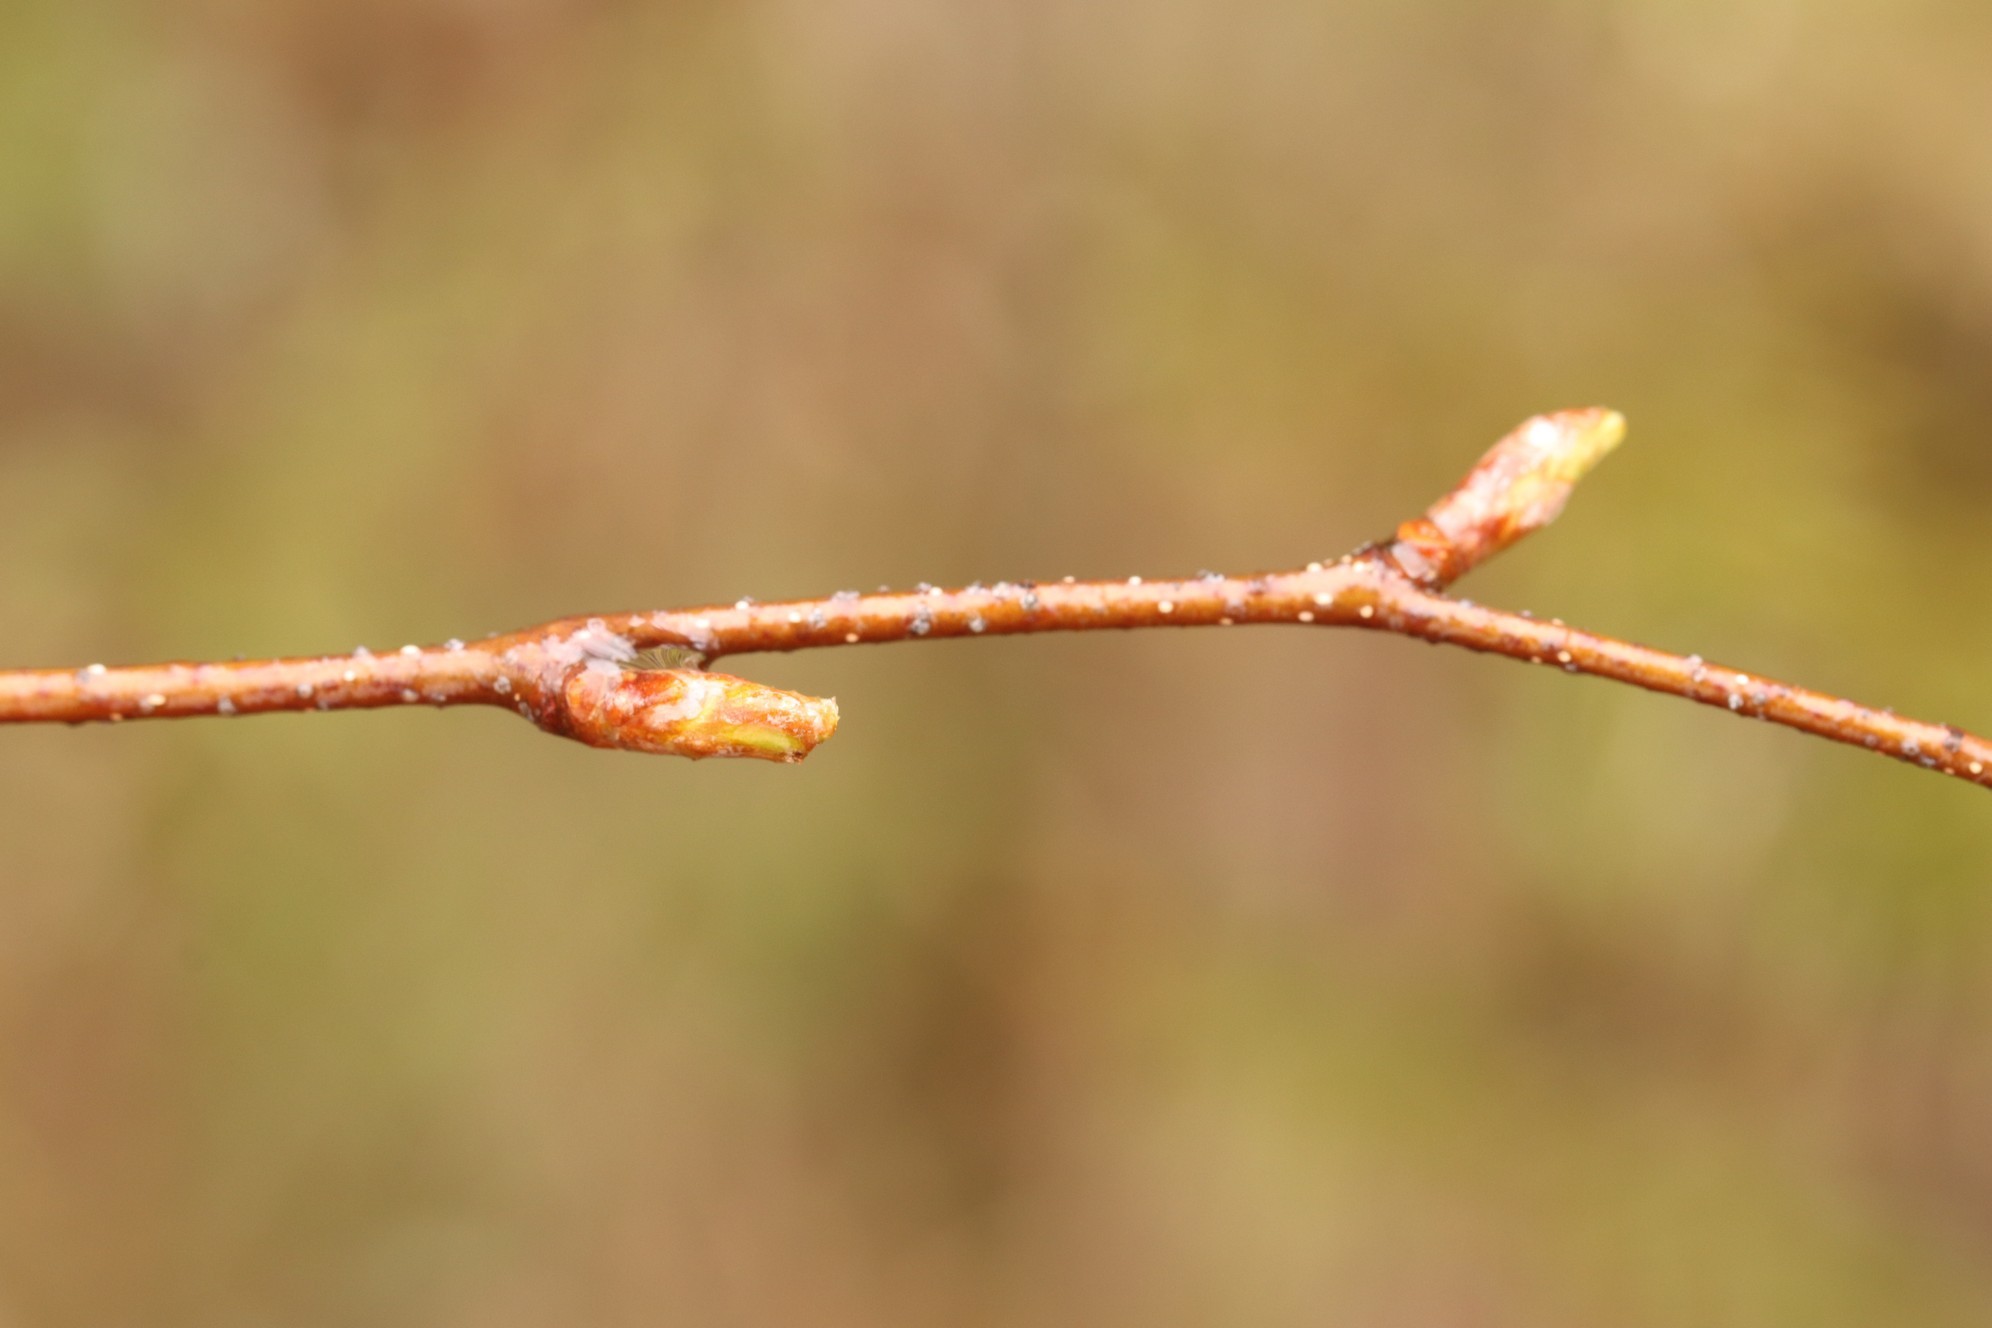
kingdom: Plantae
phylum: Tracheophyta
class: Magnoliopsida
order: Fagales
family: Betulaceae
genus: Betula
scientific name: Betula pendula
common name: Silver birch
